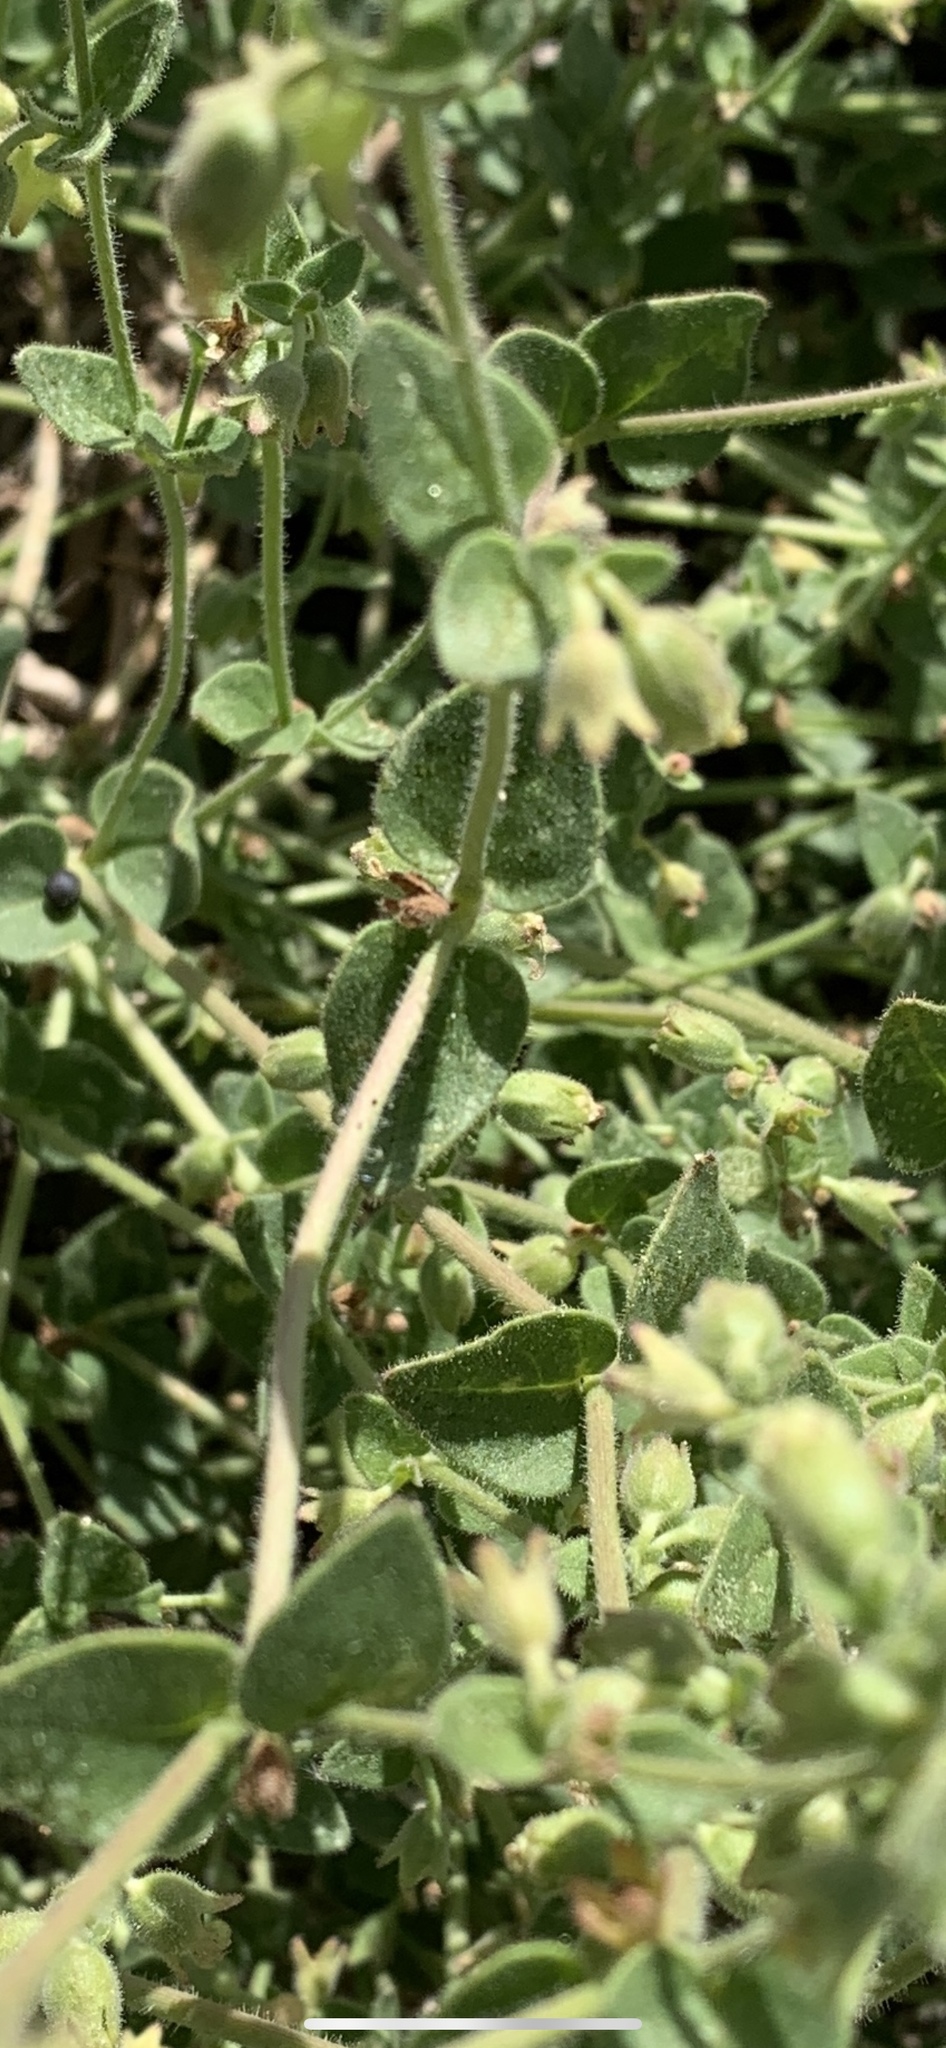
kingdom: Plantae
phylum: Tracheophyta
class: Magnoliopsida
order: Caryophyllales
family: Nyctaginaceae
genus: Mirabilis
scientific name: Mirabilis laevis
